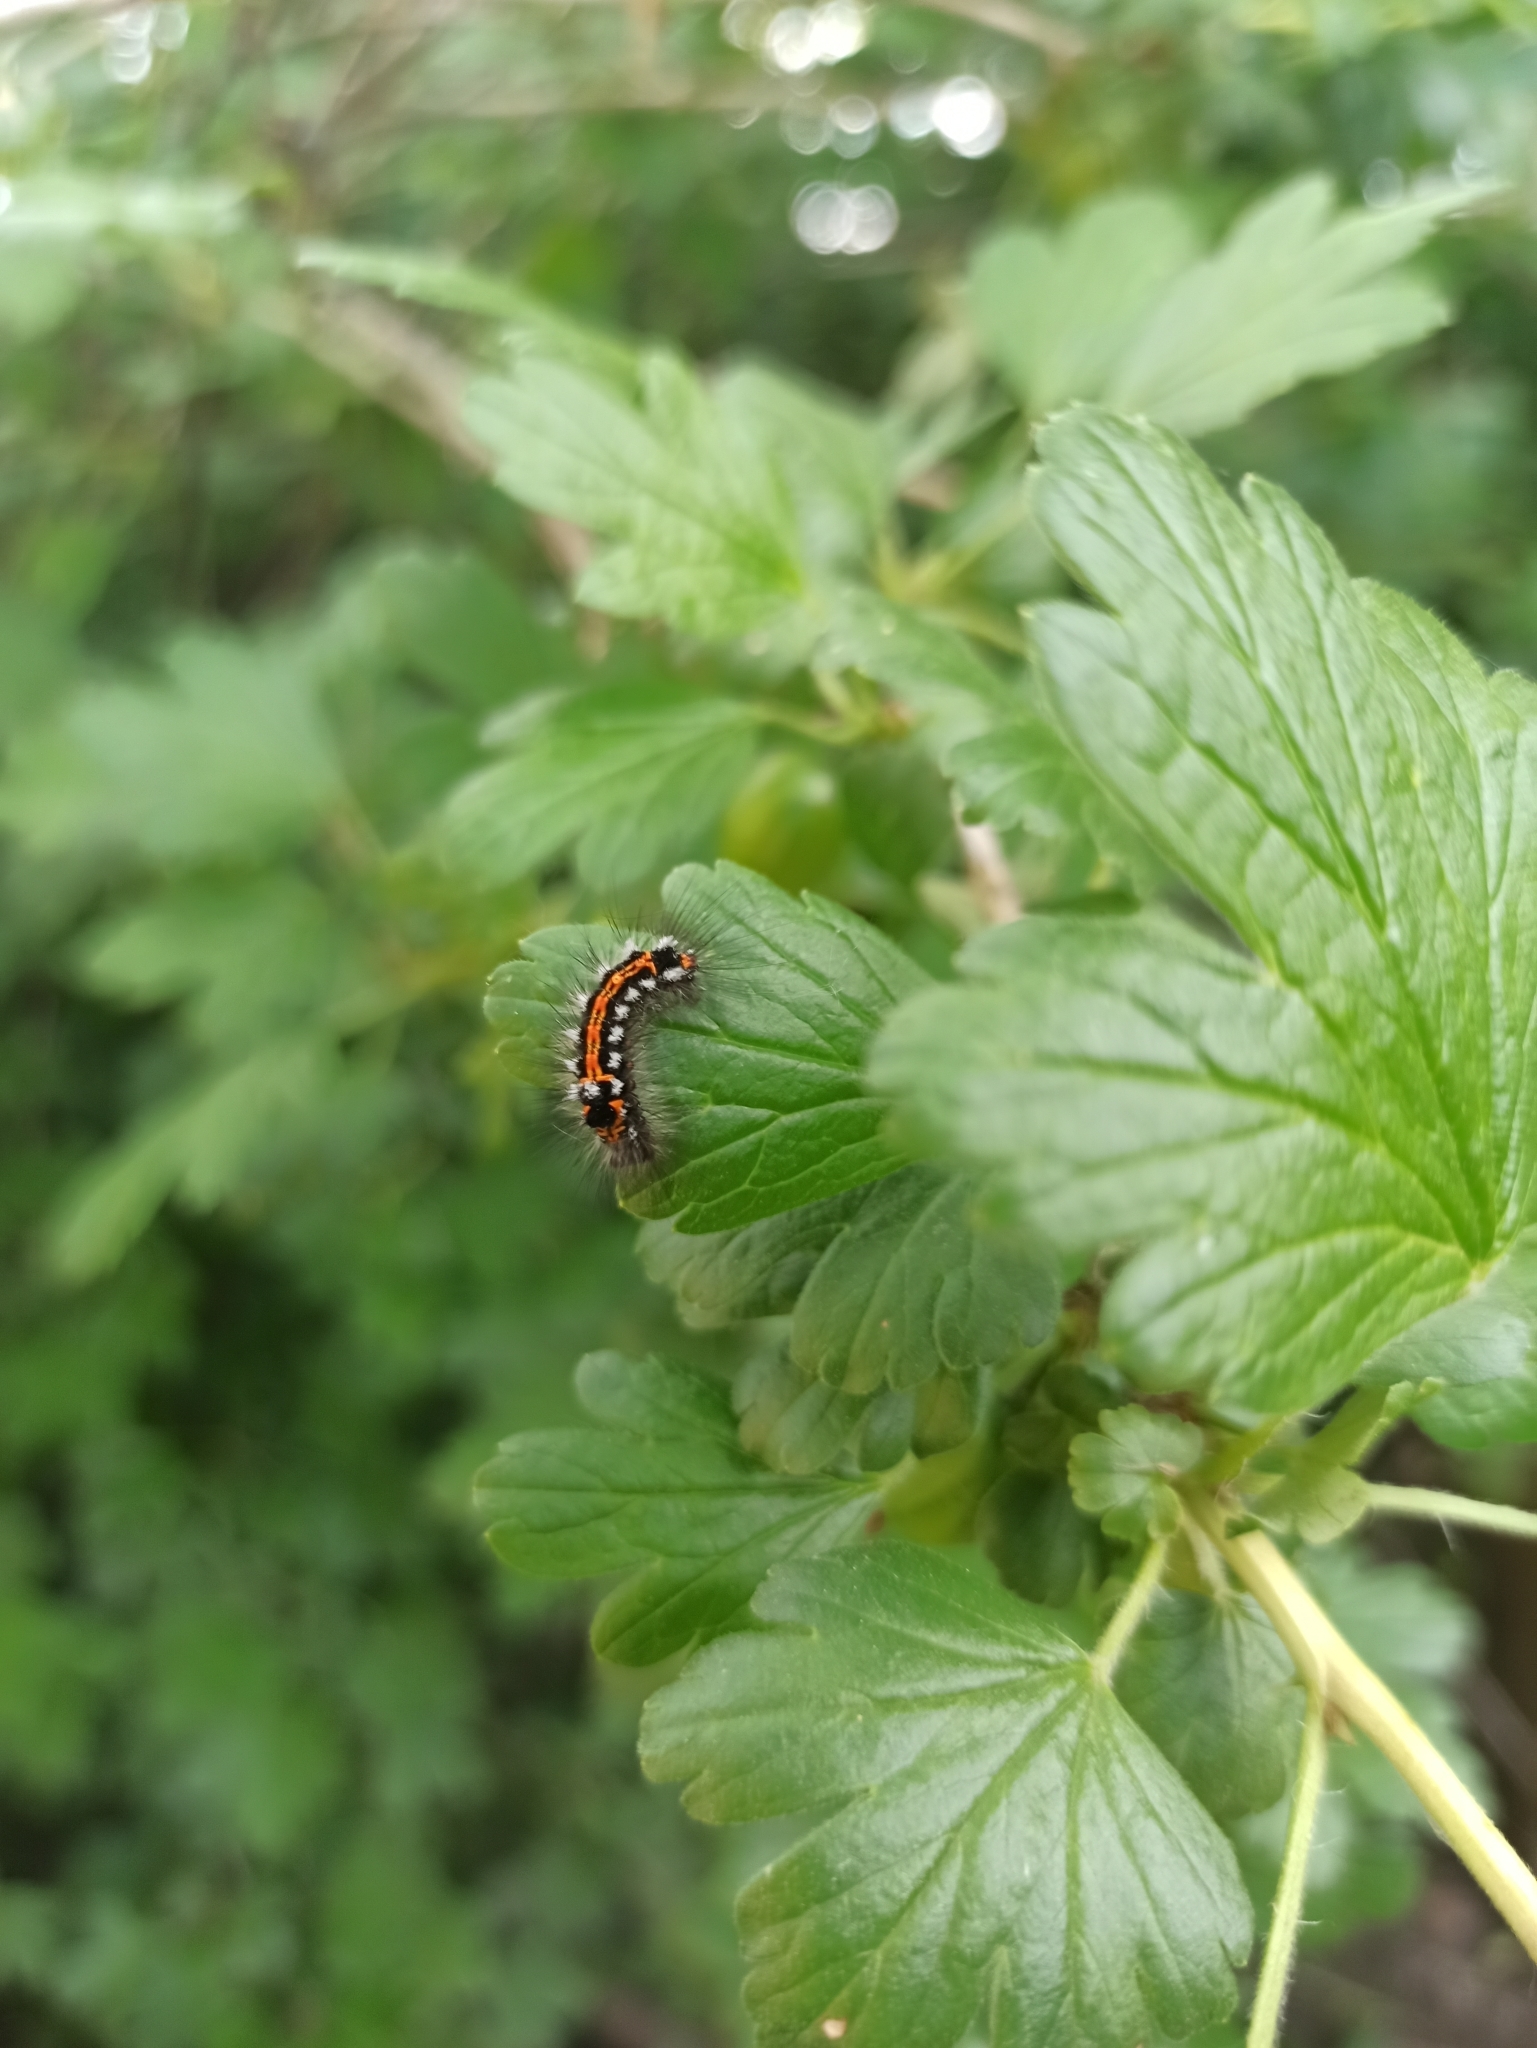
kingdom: Animalia
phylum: Arthropoda
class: Insecta
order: Lepidoptera
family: Erebidae
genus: Sphrageidus
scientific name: Sphrageidus similis
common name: Yellow-tail
